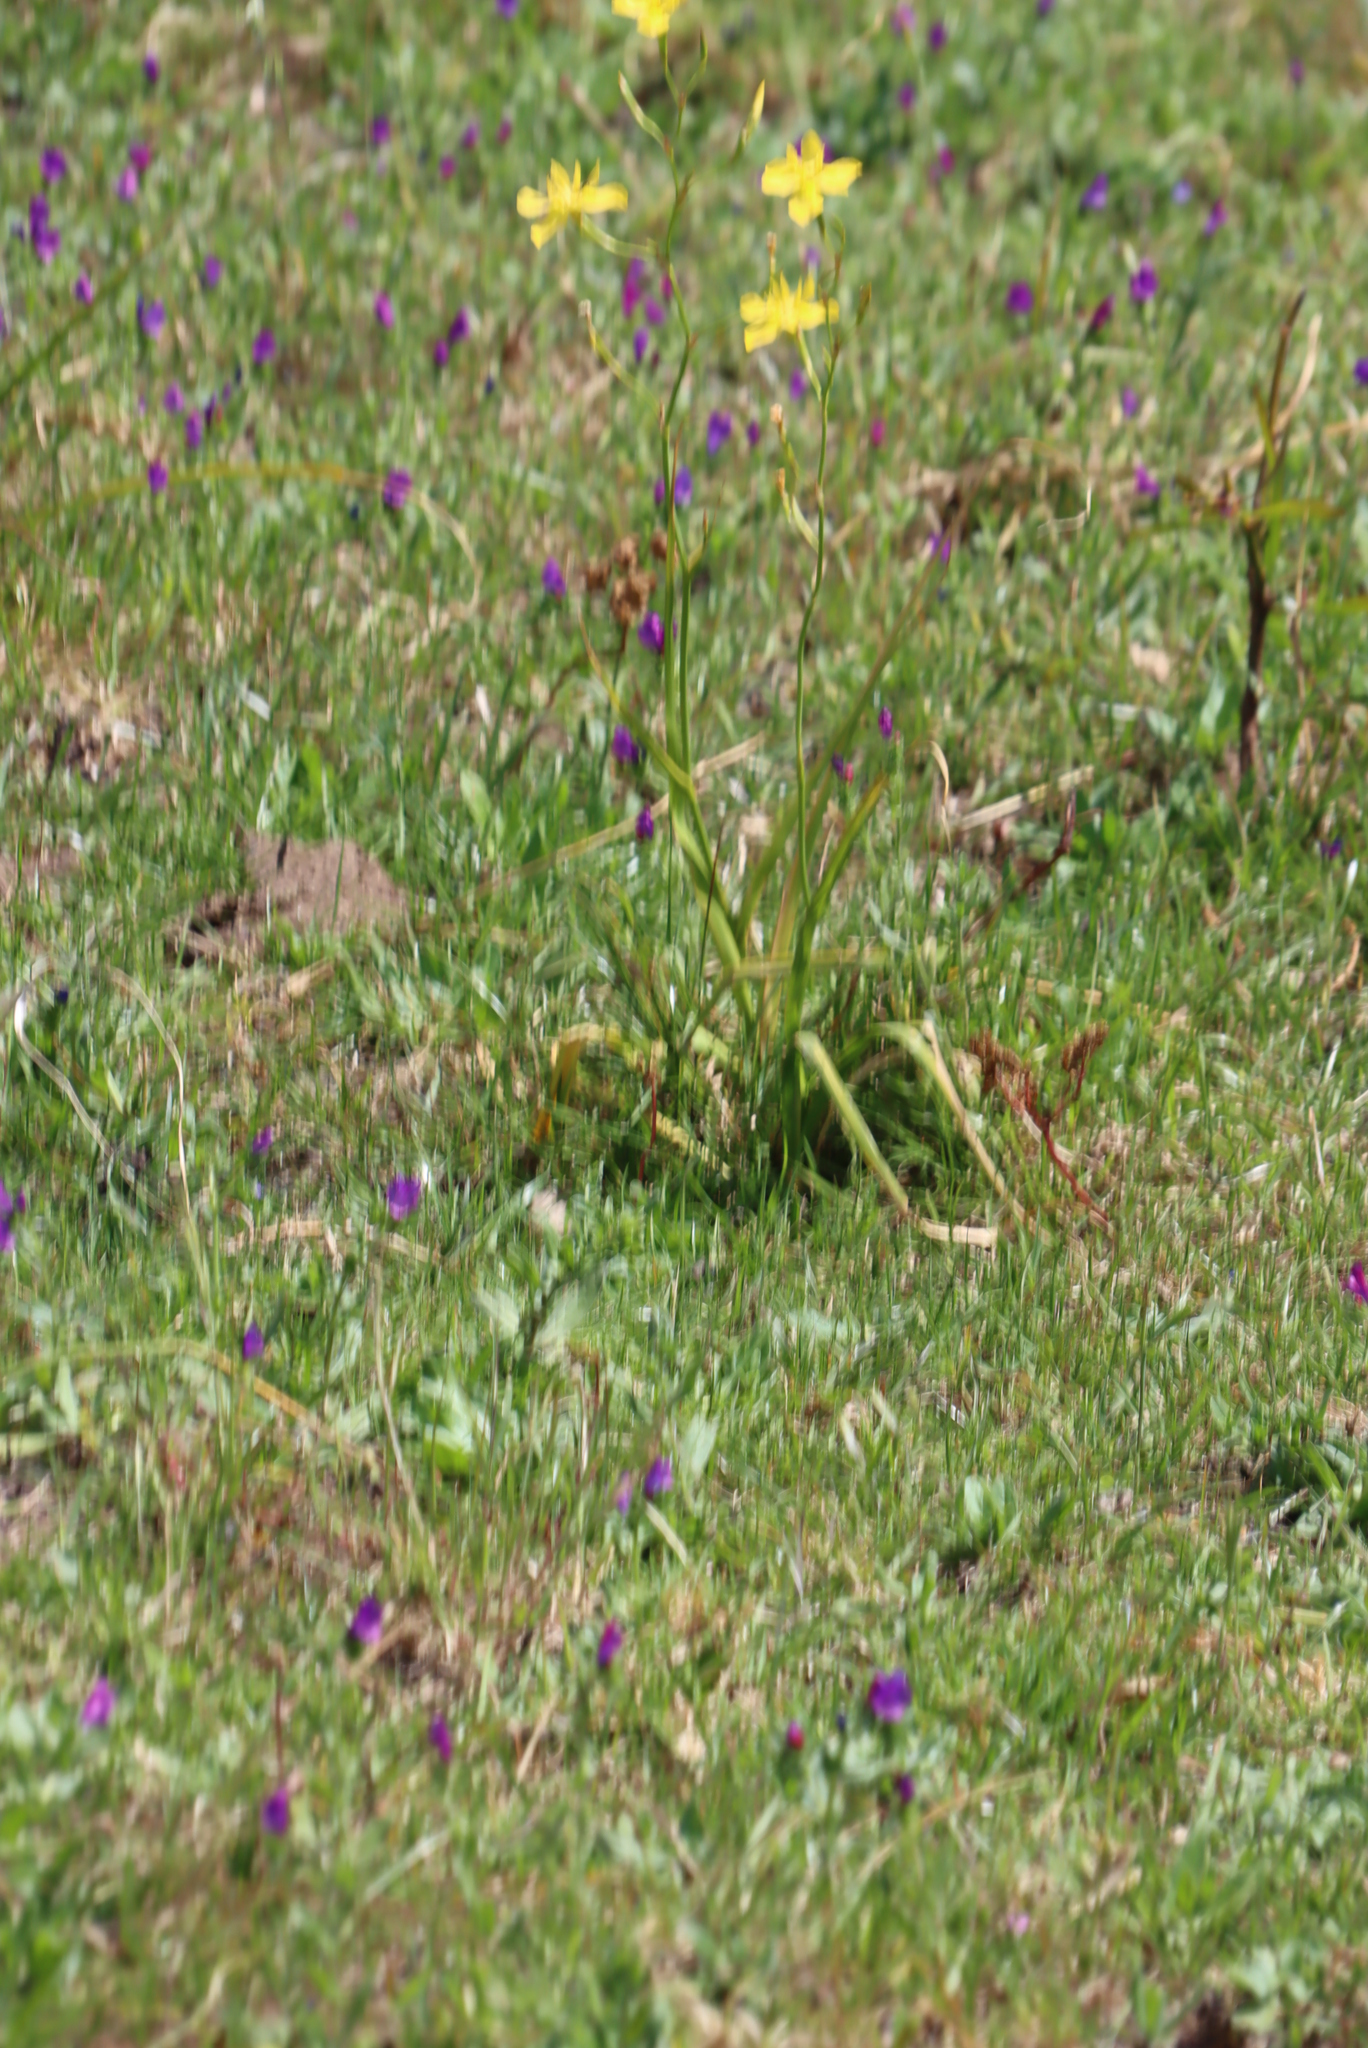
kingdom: Plantae
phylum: Tracheophyta
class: Liliopsida
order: Asparagales
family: Iridaceae
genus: Moraea
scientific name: Moraea ramosissima
